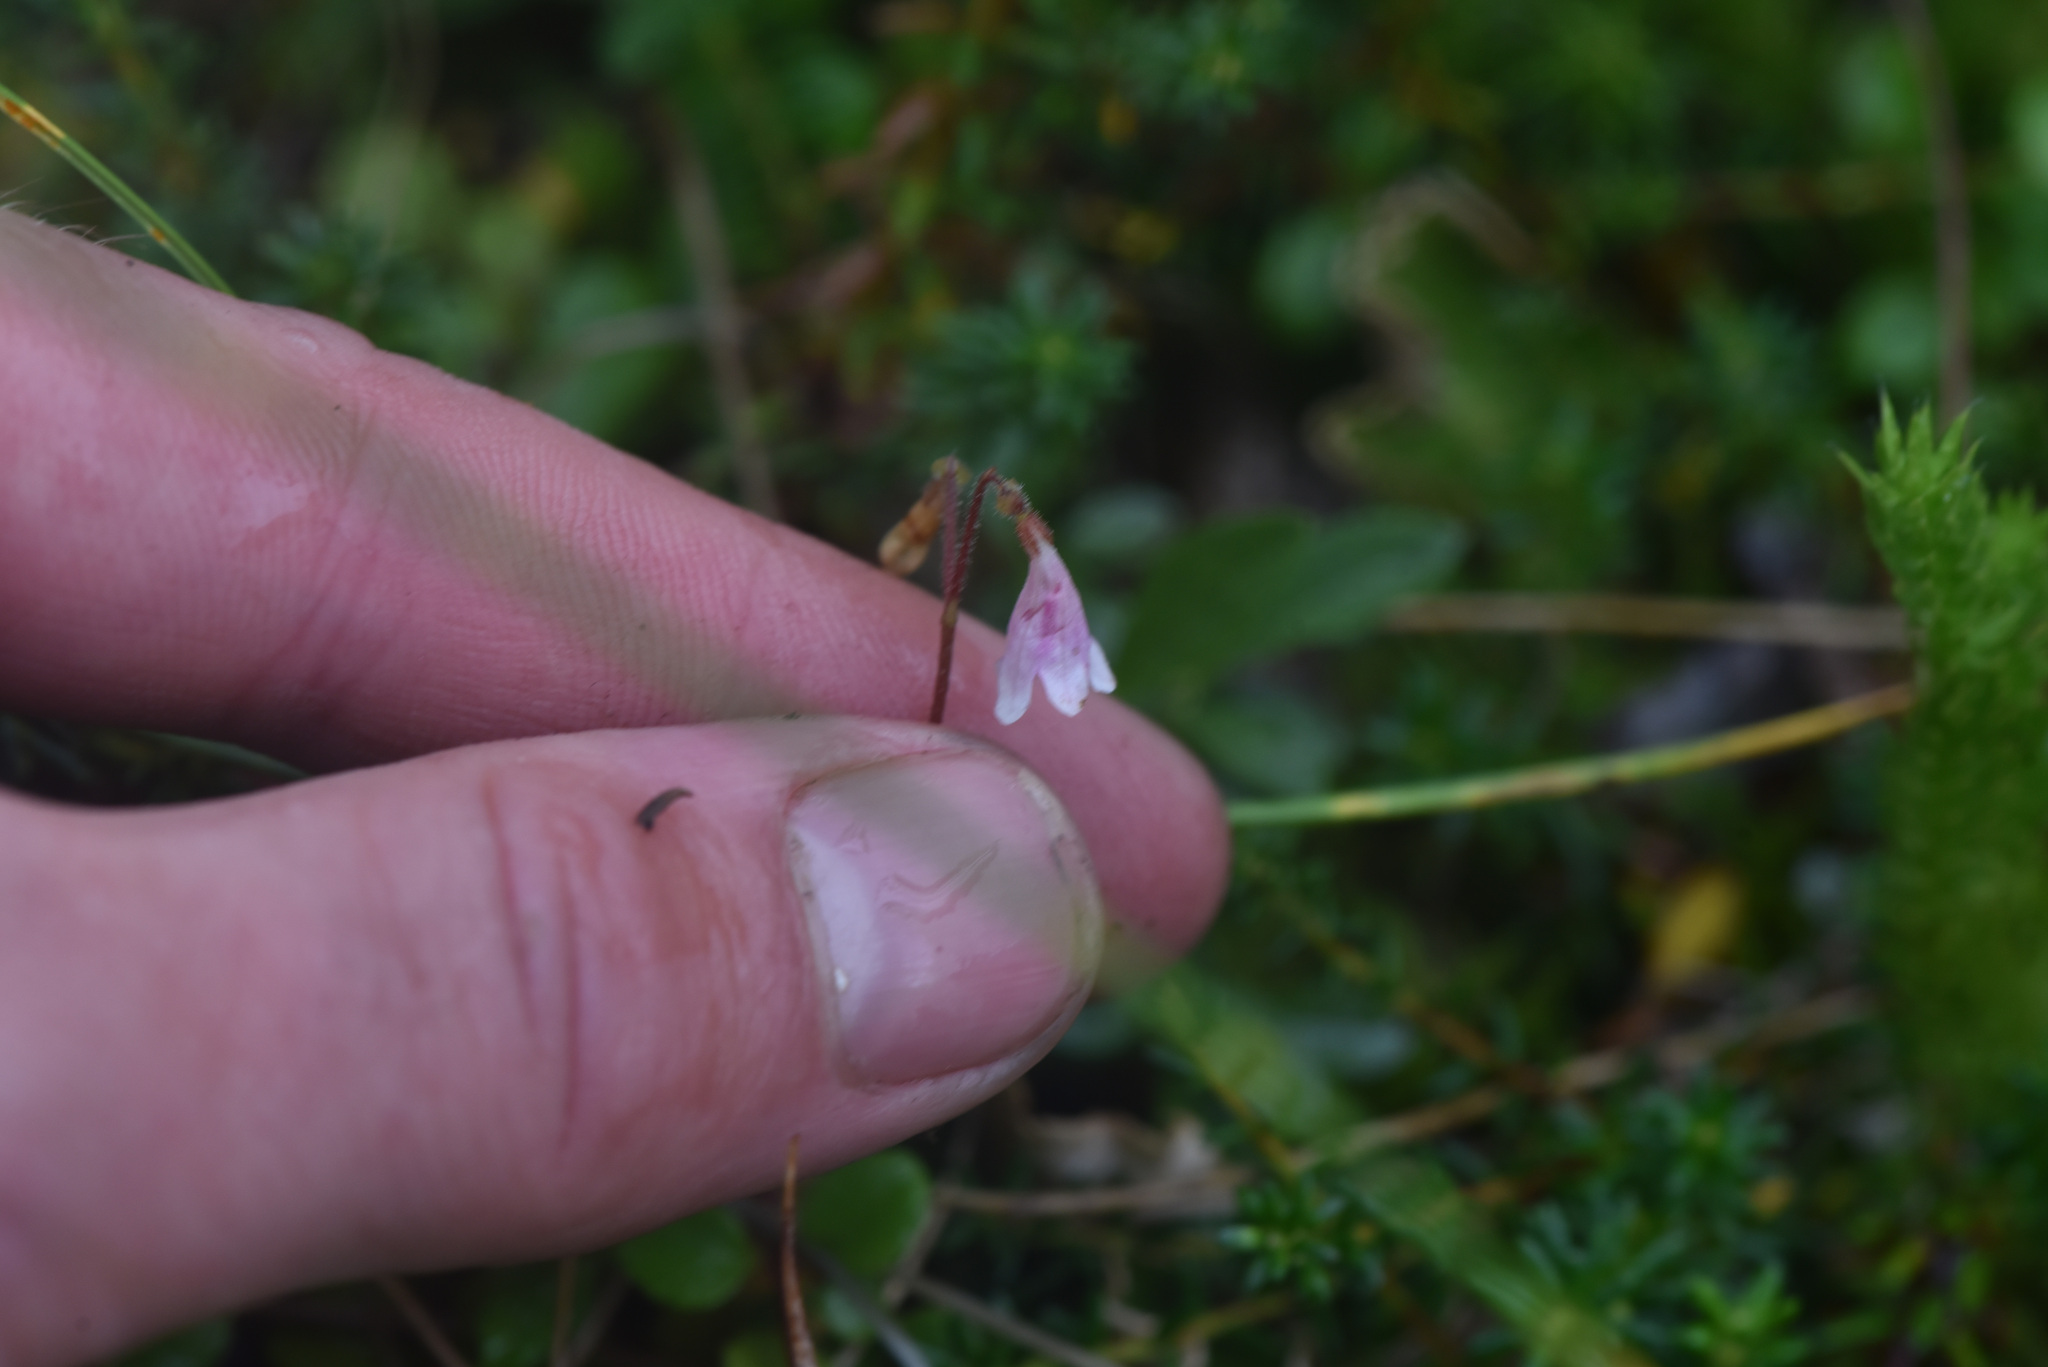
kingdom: Plantae
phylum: Tracheophyta
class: Magnoliopsida
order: Dipsacales
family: Caprifoliaceae
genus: Linnaea
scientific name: Linnaea borealis
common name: Twinflower
